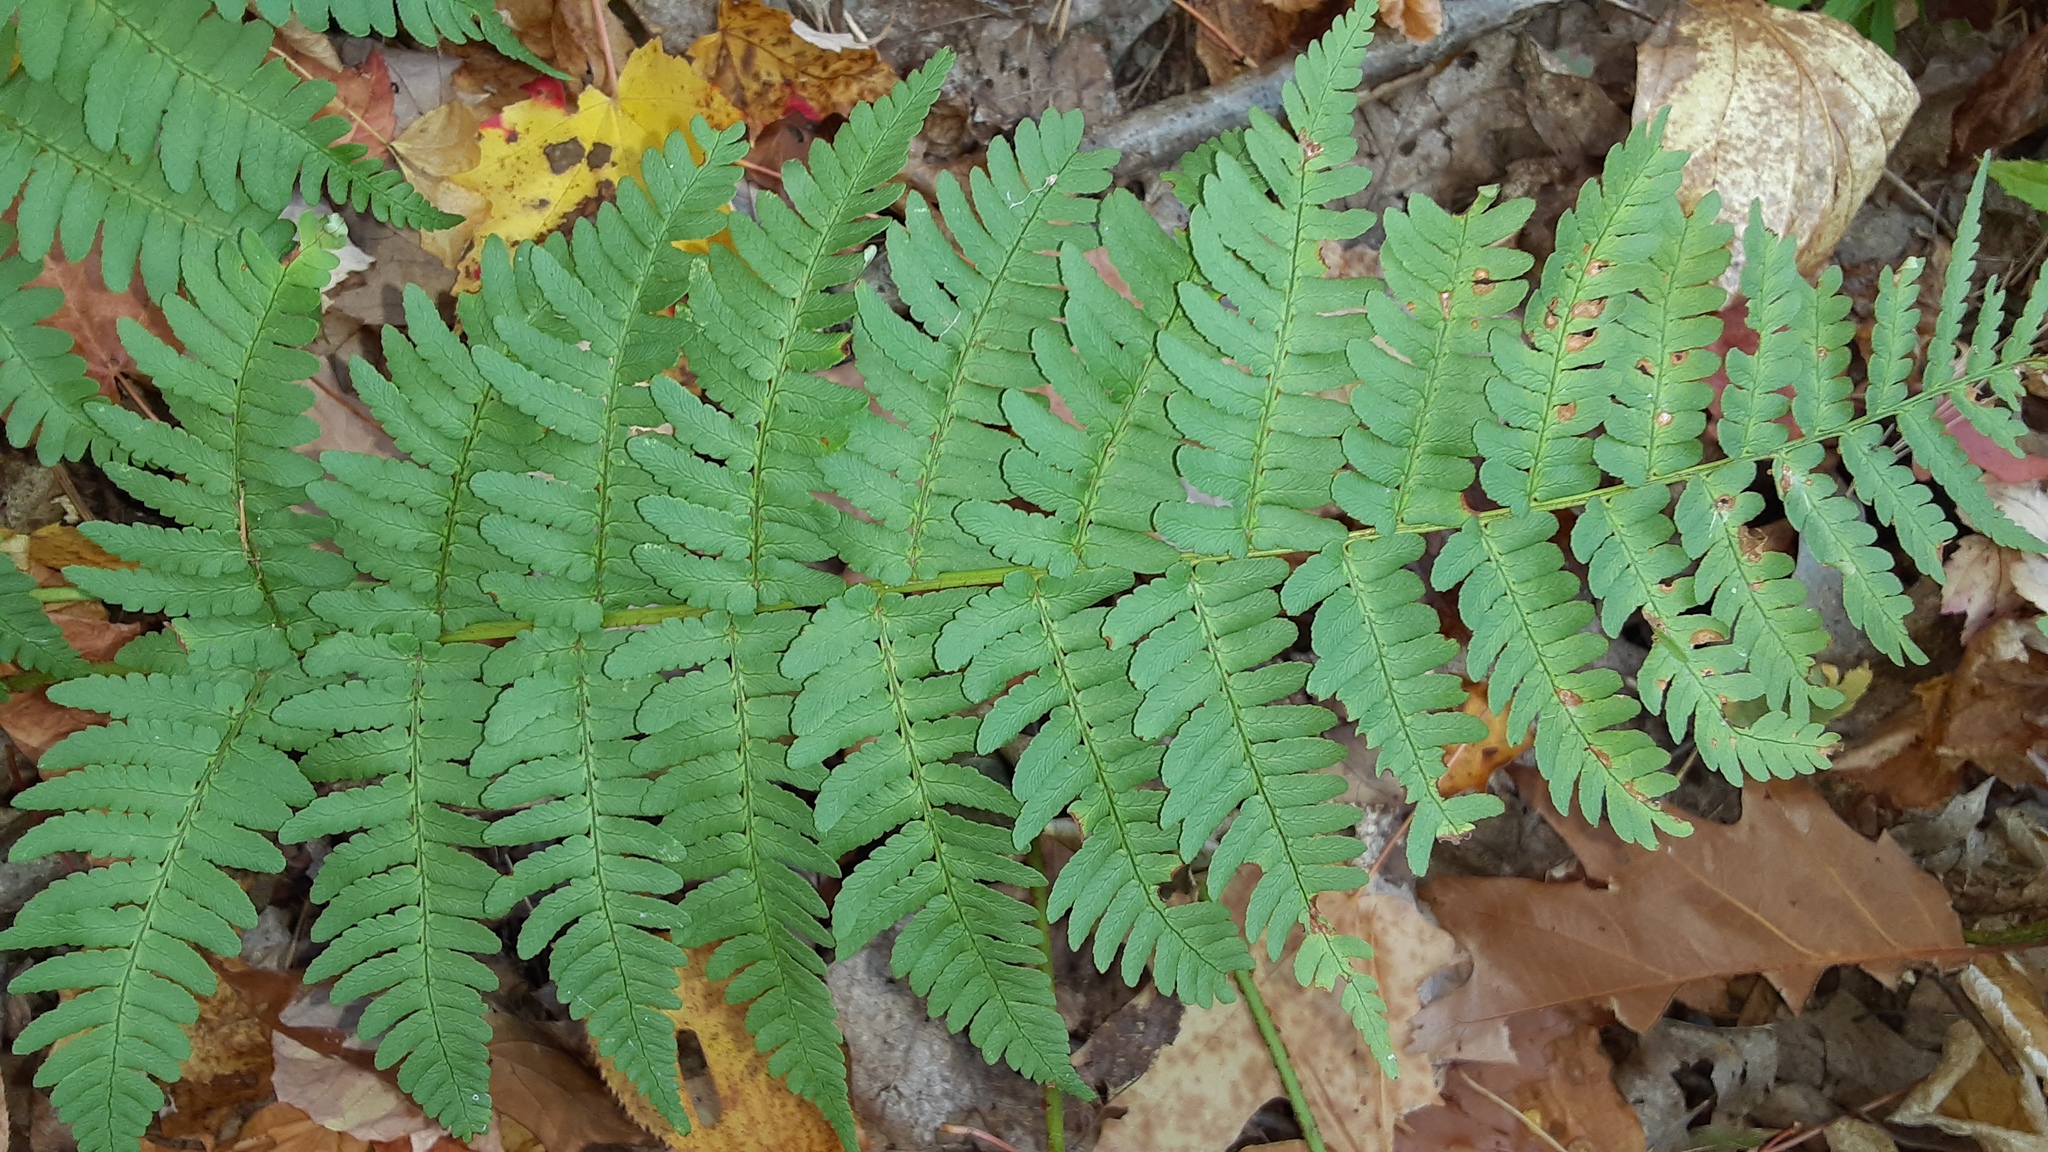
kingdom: Plantae
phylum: Tracheophyta
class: Polypodiopsida
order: Polypodiales
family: Dryopteridaceae
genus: Dryopteris
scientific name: Dryopteris marginalis
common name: Marginal wood fern
